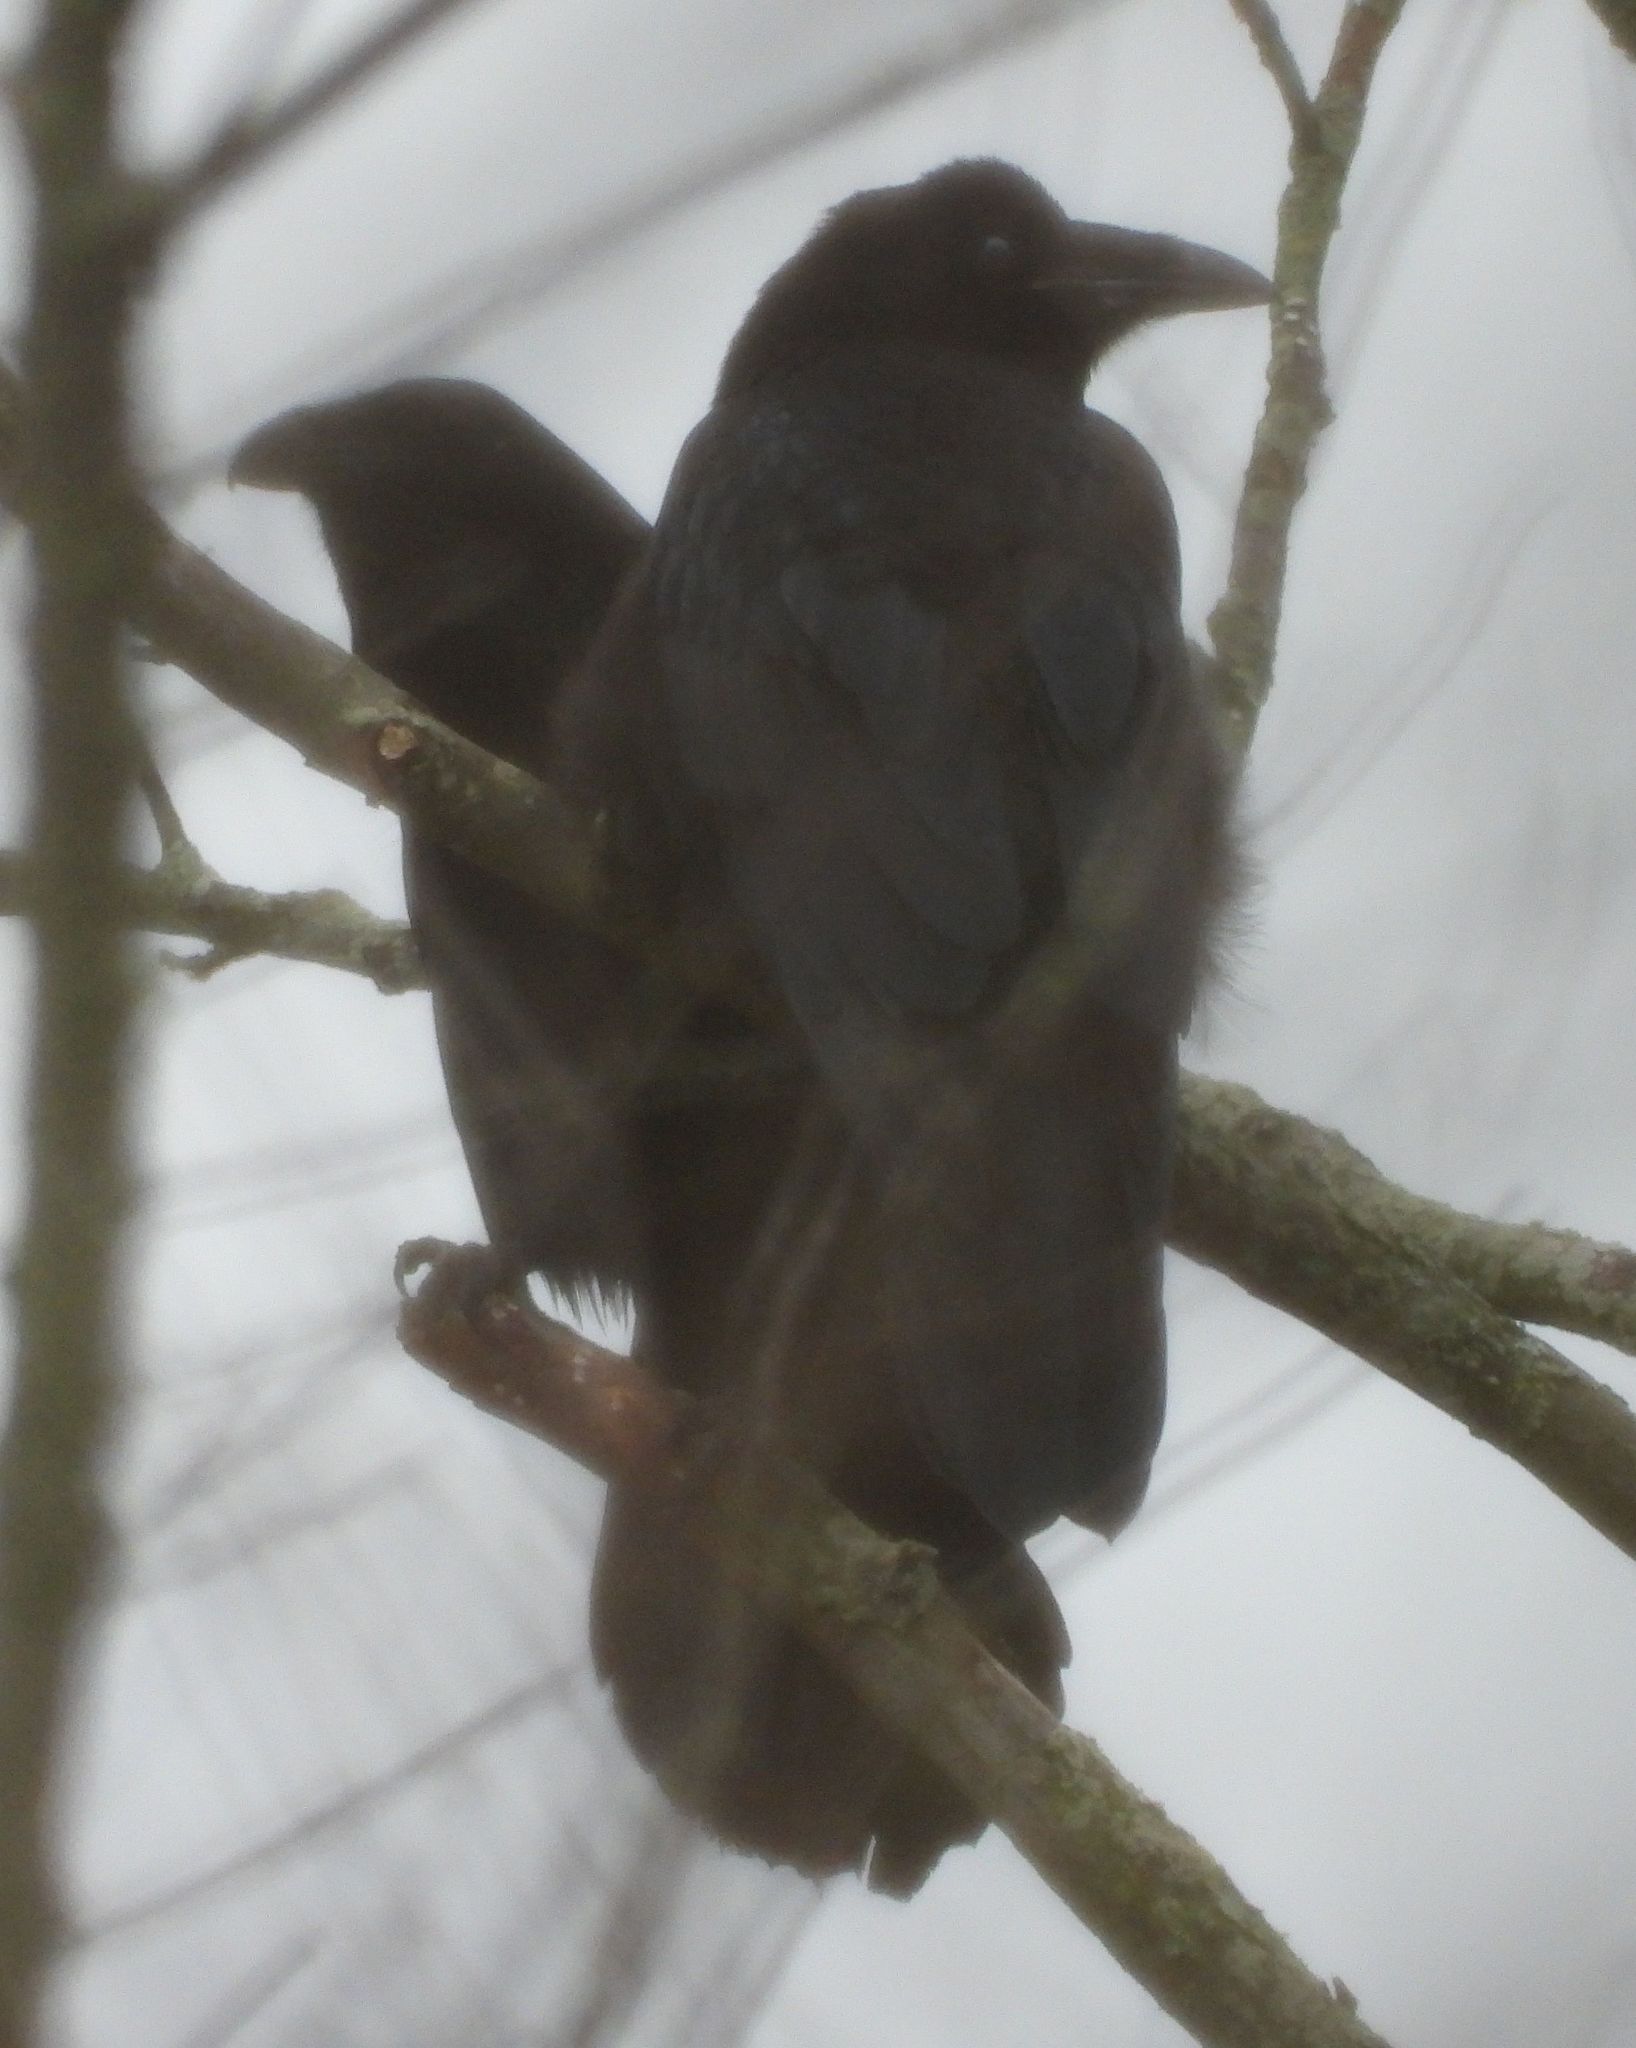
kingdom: Animalia
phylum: Chordata
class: Aves
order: Passeriformes
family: Corvidae
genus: Corvus
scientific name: Corvus corax
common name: Common raven
